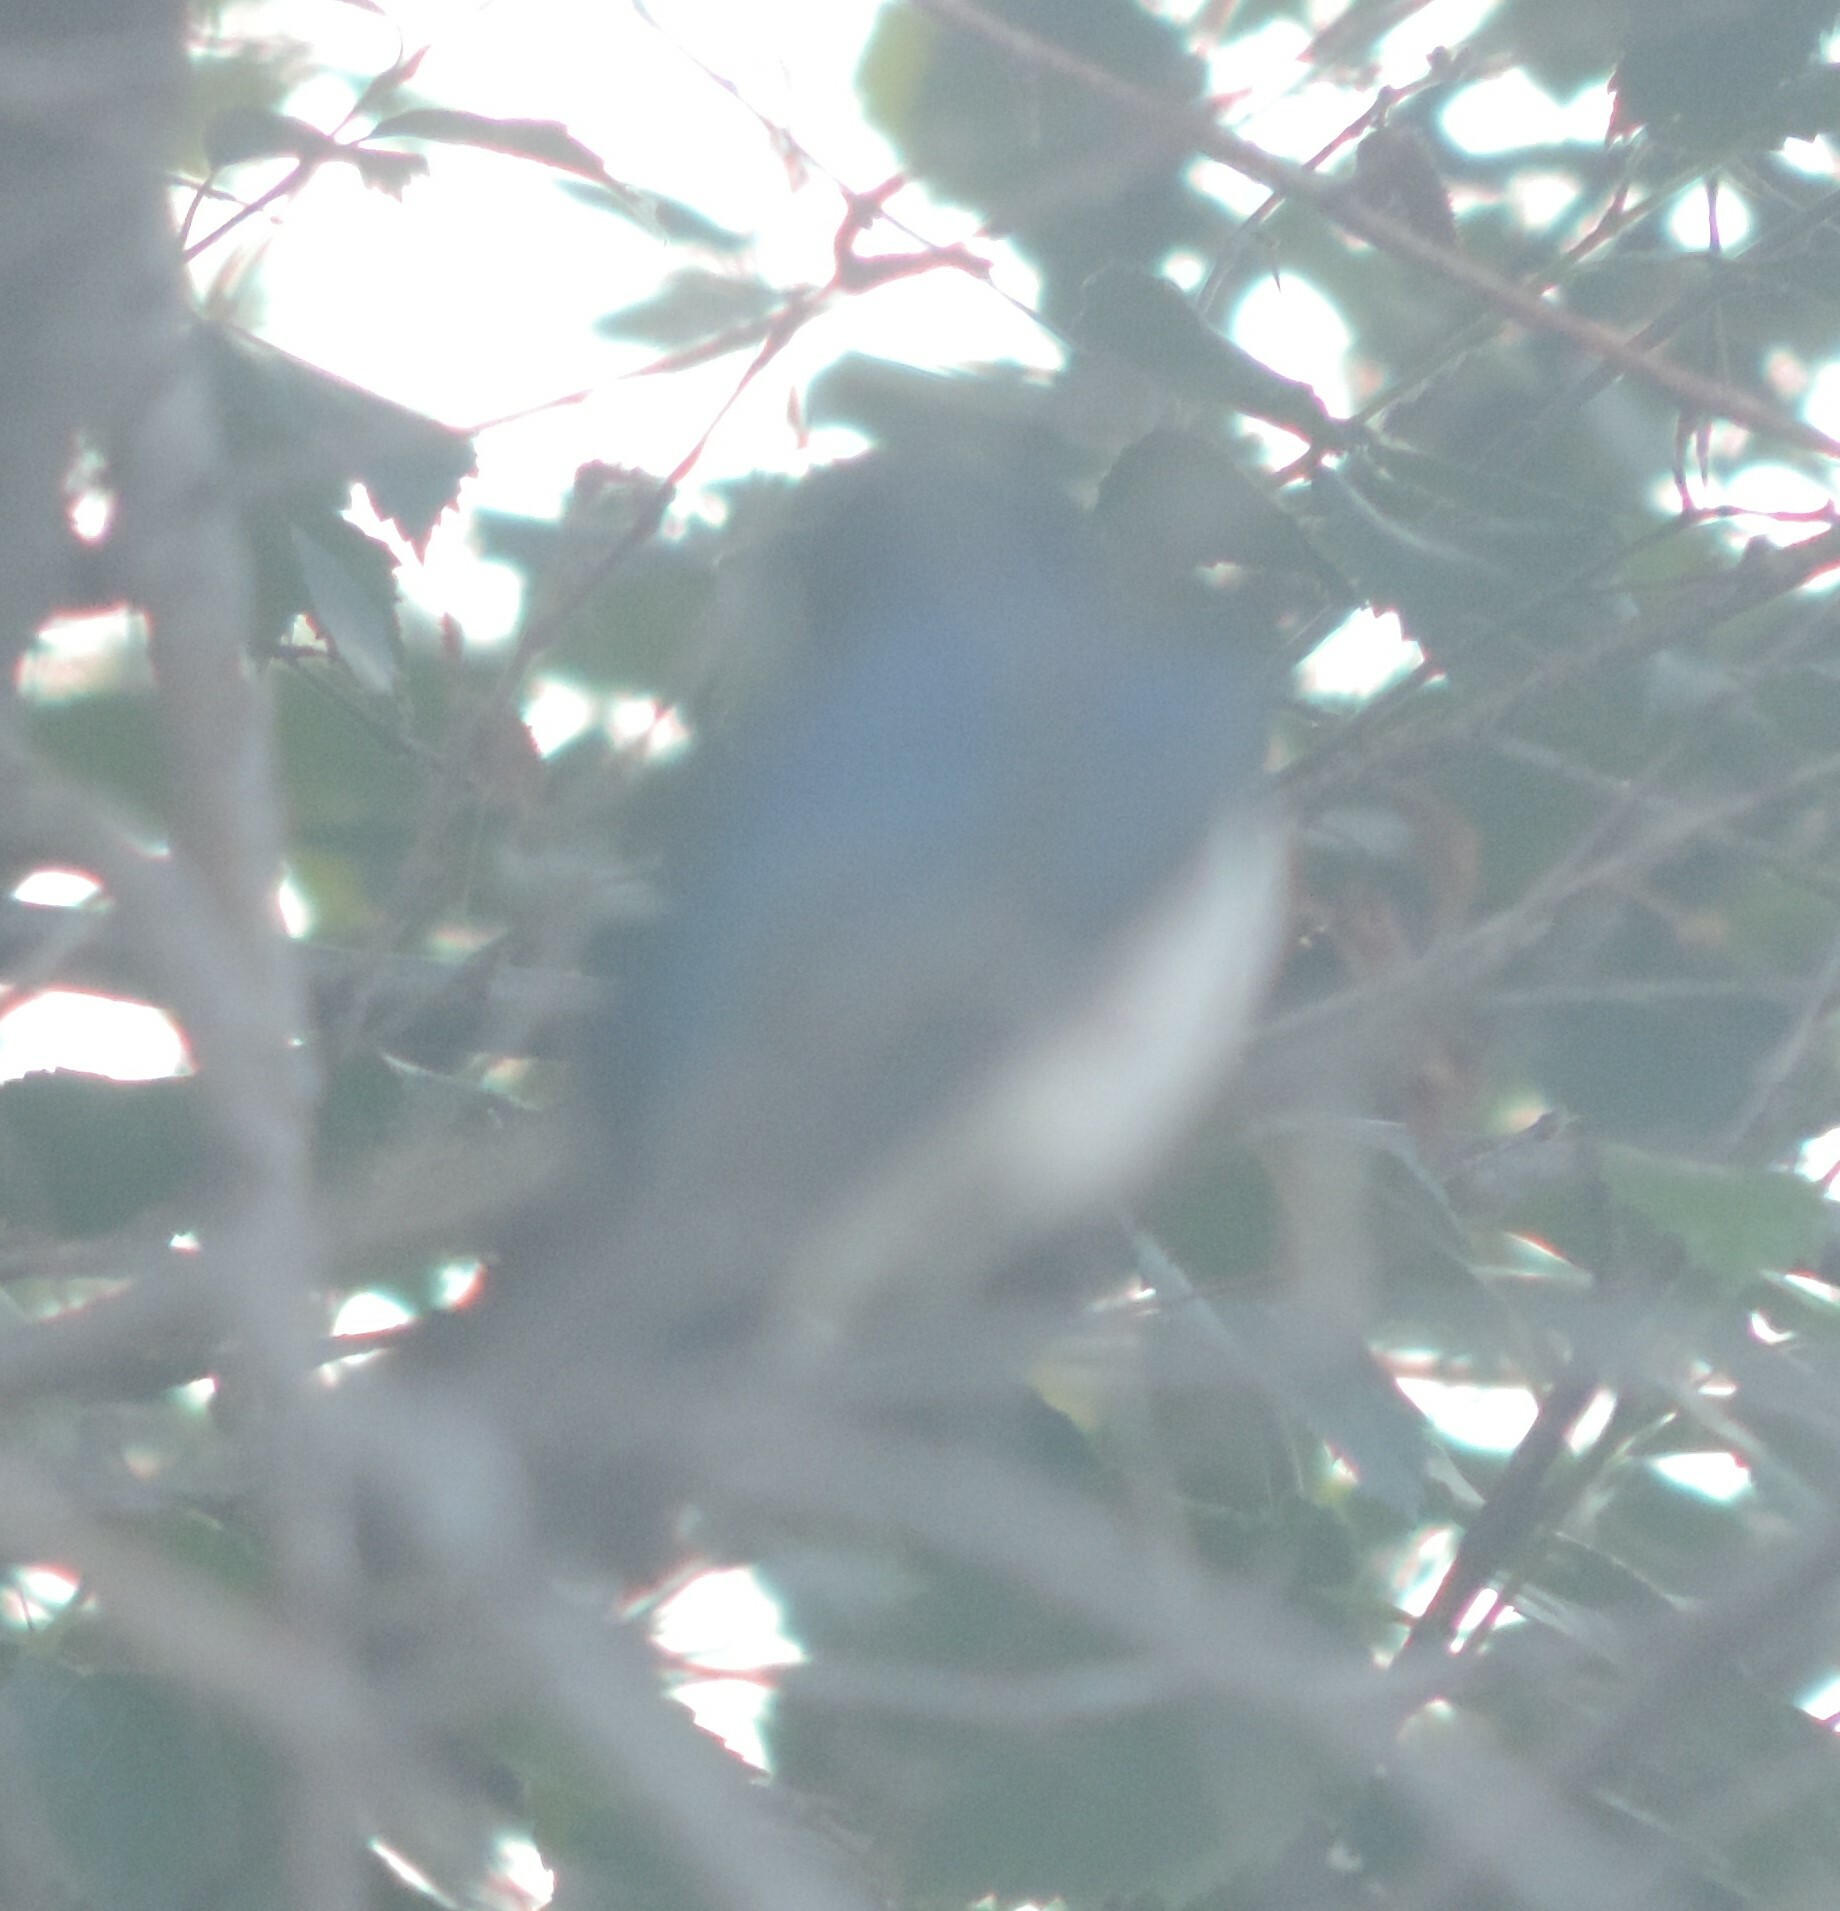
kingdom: Animalia
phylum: Chordata
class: Aves
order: Passeriformes
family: Hirundinidae
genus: Tachycineta
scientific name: Tachycineta bicolor
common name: Tree swallow
